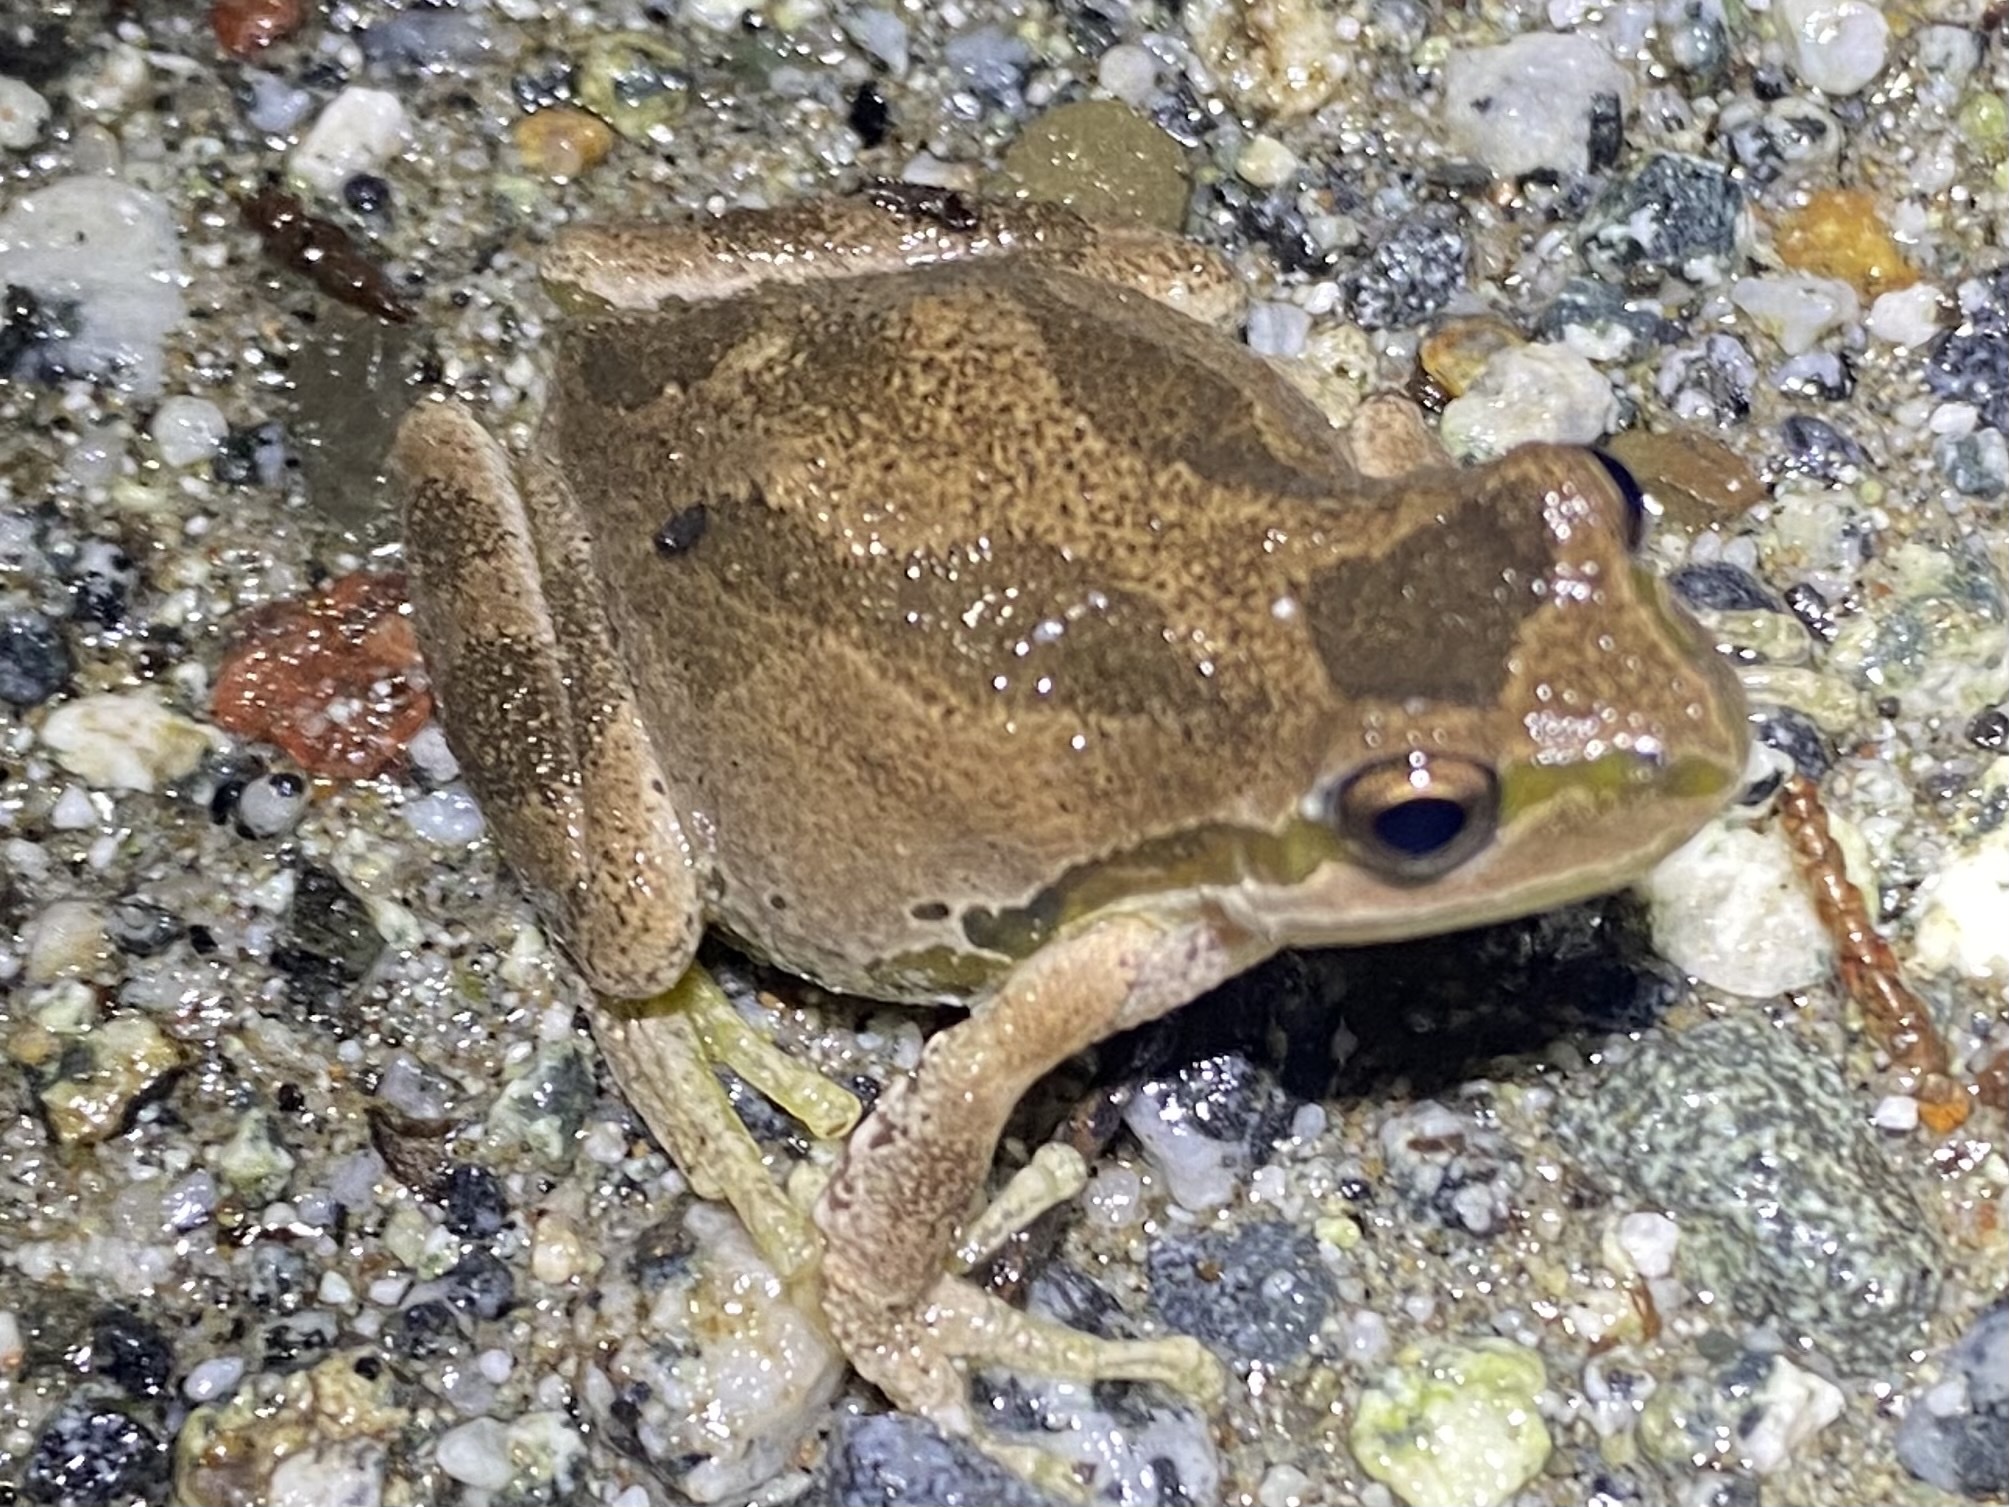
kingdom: Animalia
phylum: Chordata
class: Amphibia
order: Anura
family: Hylidae
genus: Pseudacris
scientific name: Pseudacris regilla
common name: Pacific chorus frog
